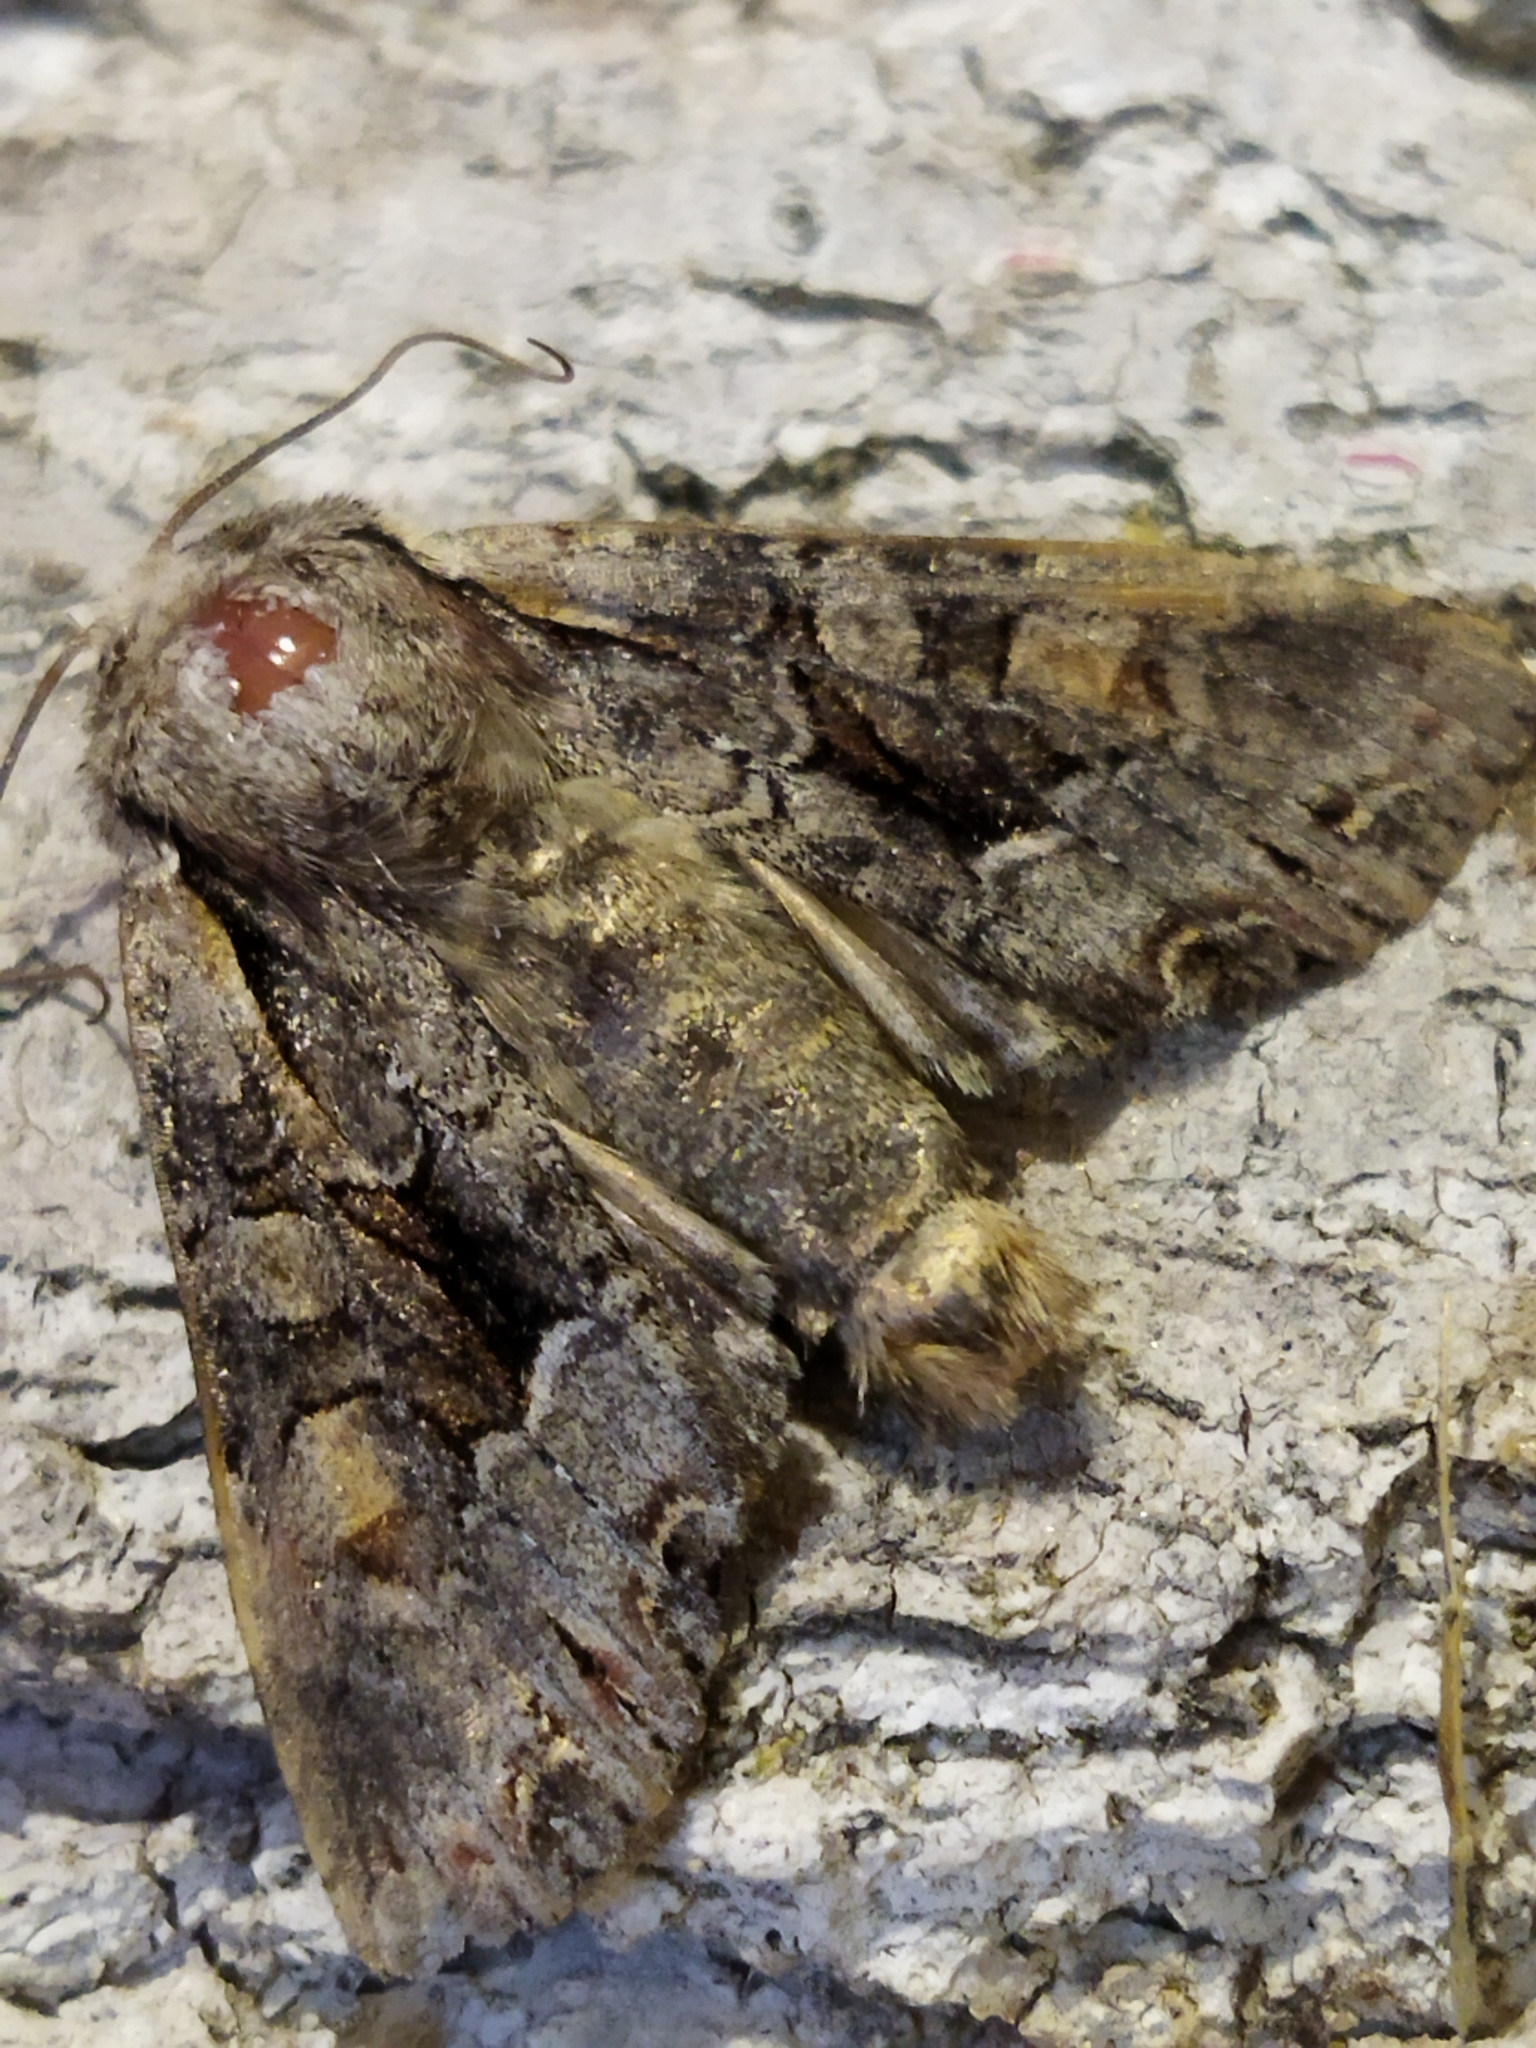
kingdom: Animalia
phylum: Arthropoda
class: Insecta
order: Lepidoptera
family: Noctuidae
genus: Lacanobia
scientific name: Lacanobia w-latinum
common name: Light brocade
